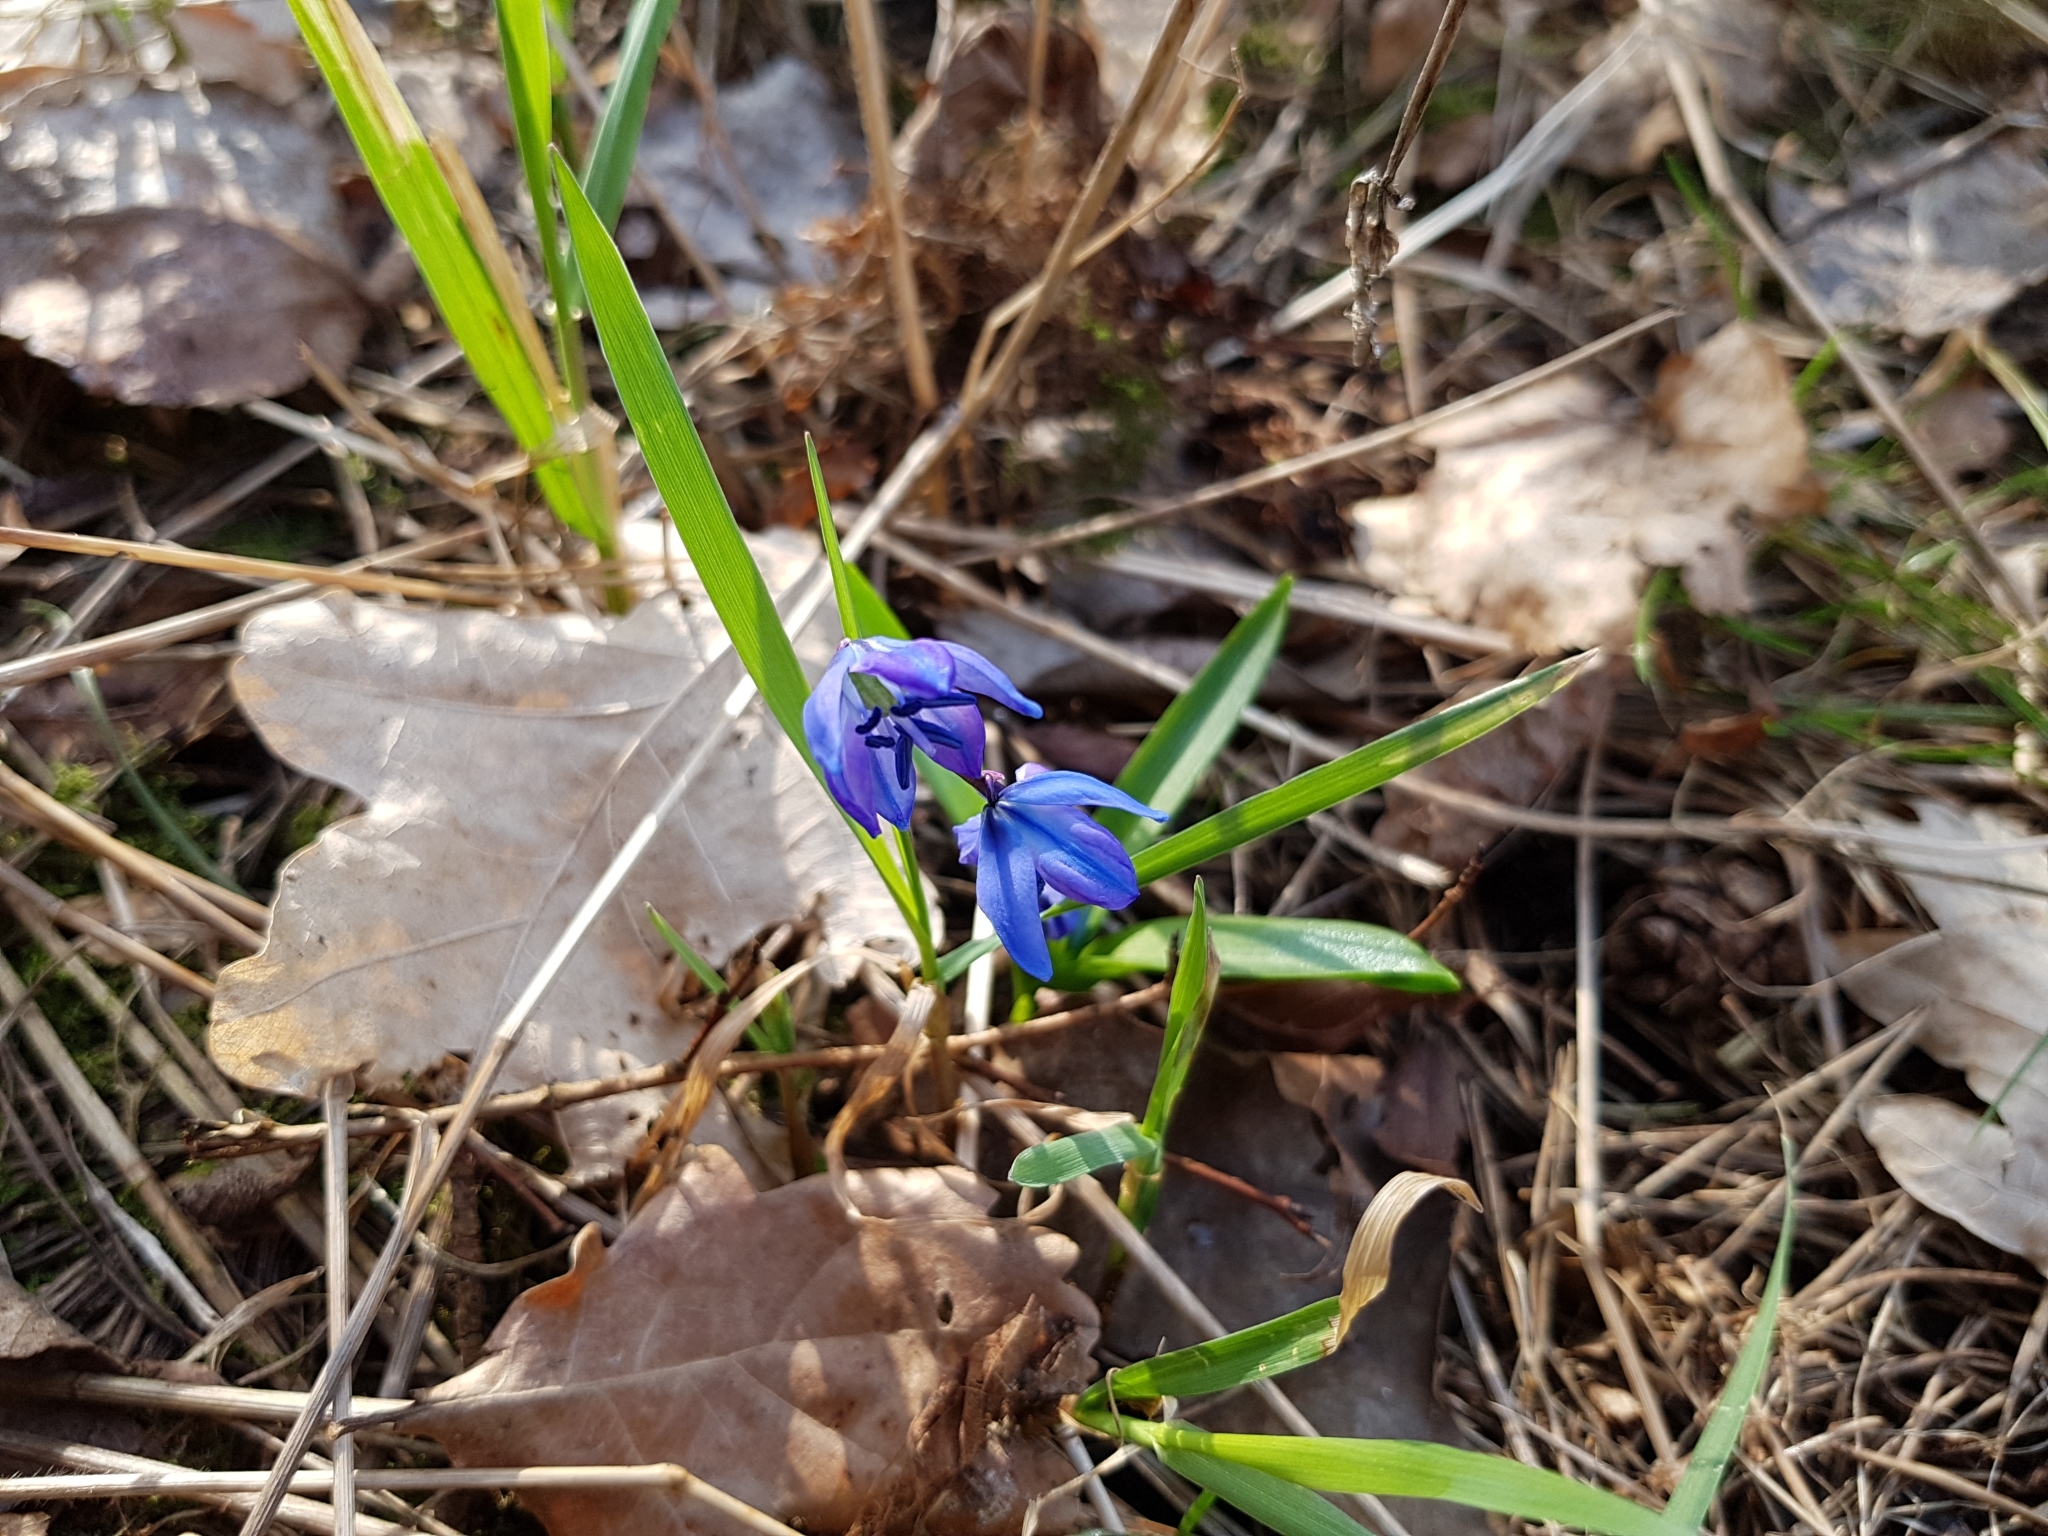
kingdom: Plantae
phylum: Tracheophyta
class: Liliopsida
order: Asparagales
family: Asparagaceae
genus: Scilla
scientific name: Scilla siberica
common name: Siberian squill
